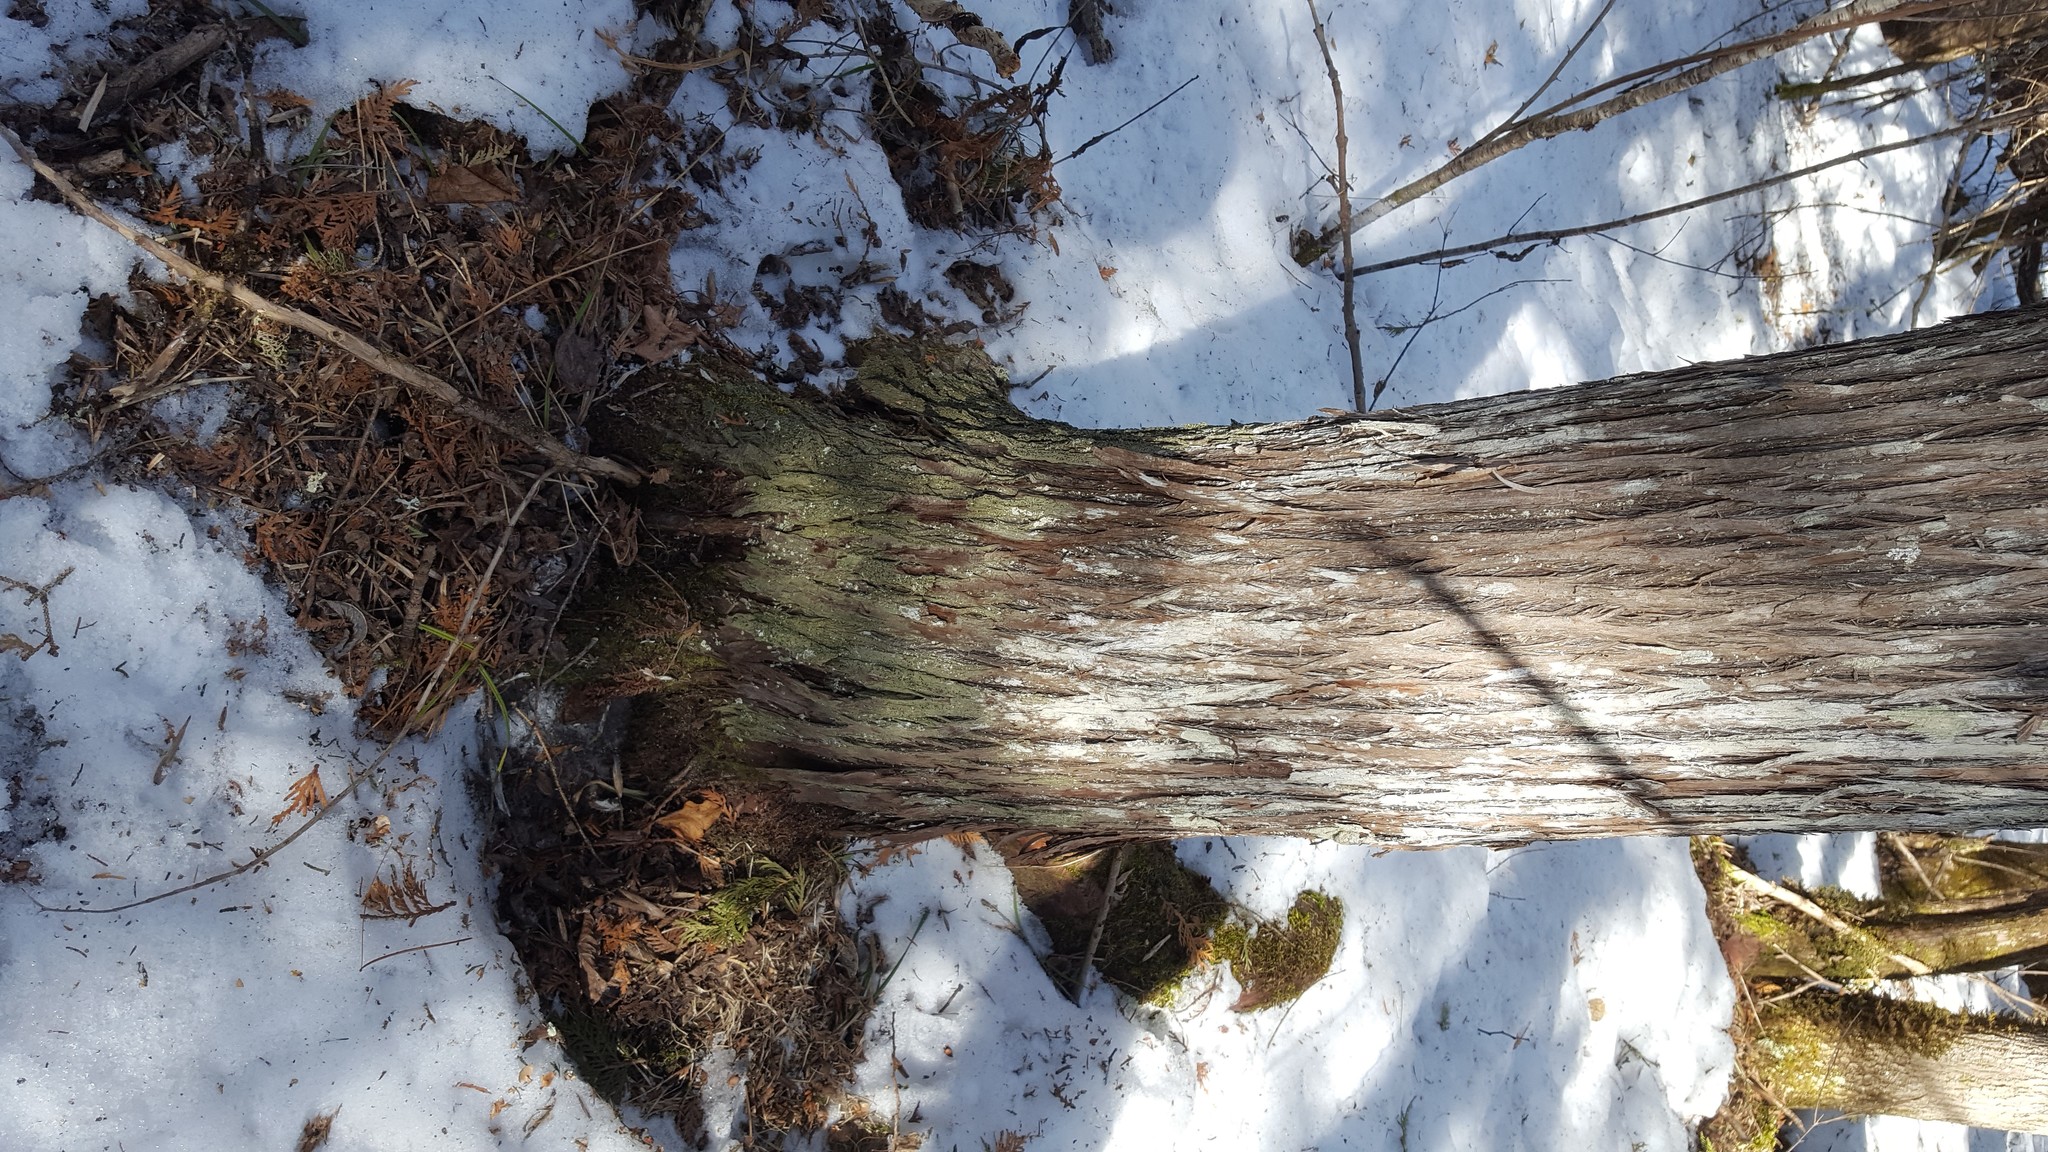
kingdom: Fungi
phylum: Ascomycota
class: Lecanoromycetes
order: Lecanorales
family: Ramalinaceae
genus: Bacidia
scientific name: Bacidia schweinitzii
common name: Surprise lichen
